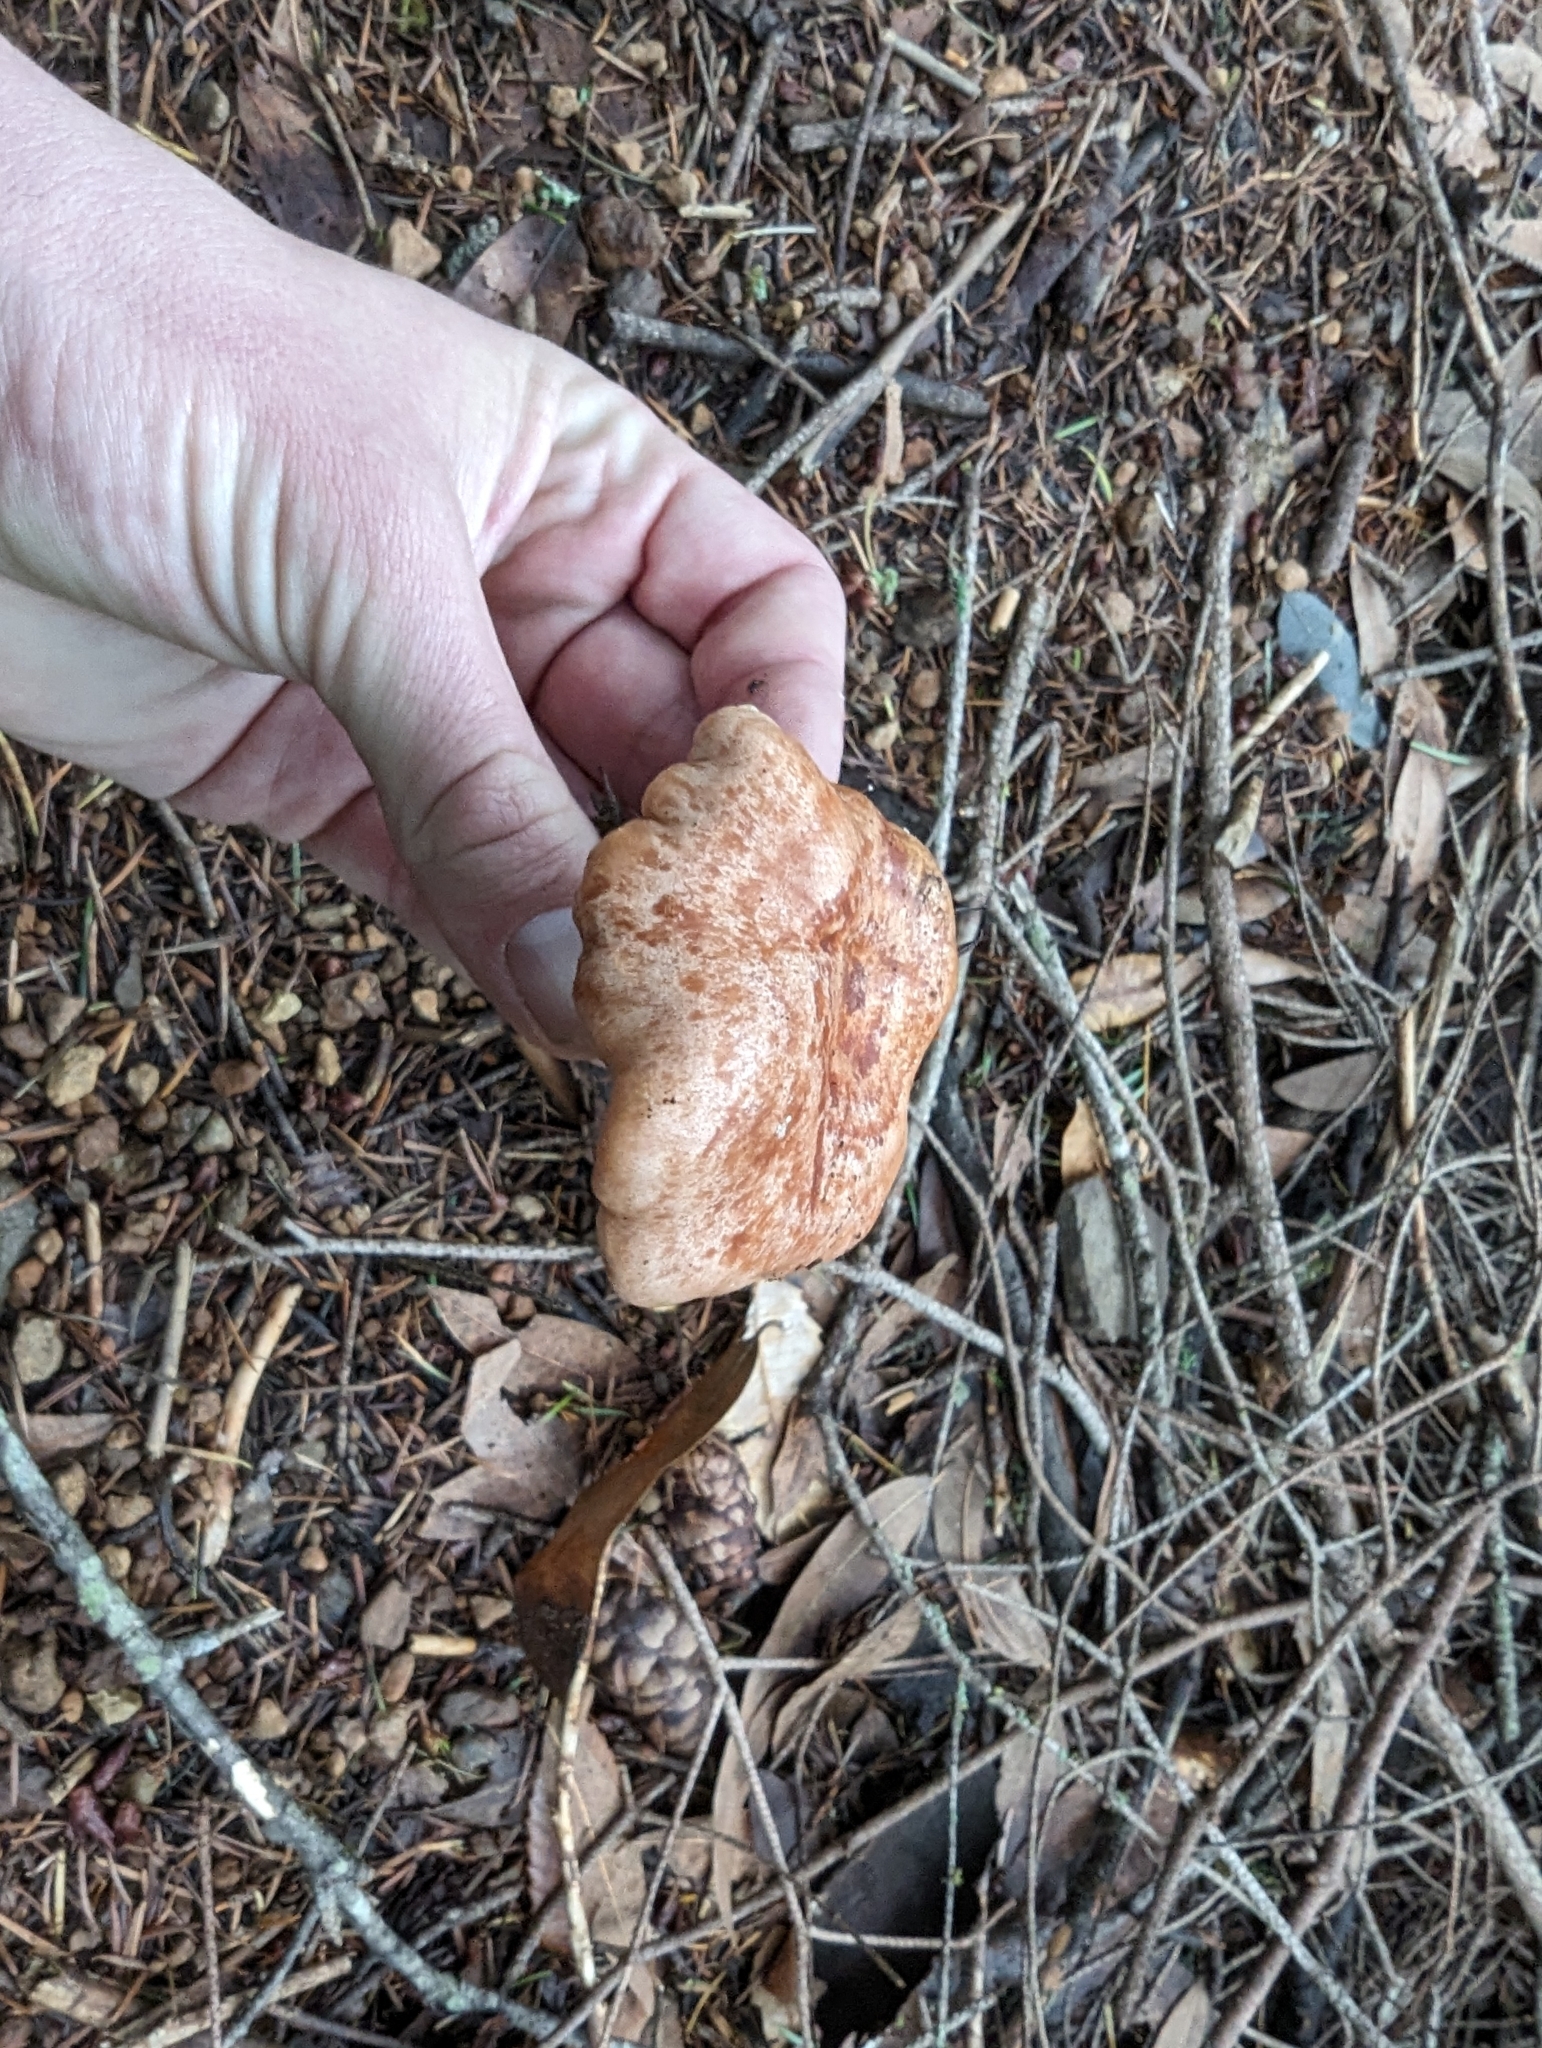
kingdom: Fungi
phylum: Basidiomycota
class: Agaricomycetes
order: Russulales
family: Russulaceae
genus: Lactarius
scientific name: Lactarius xanthogalactus
